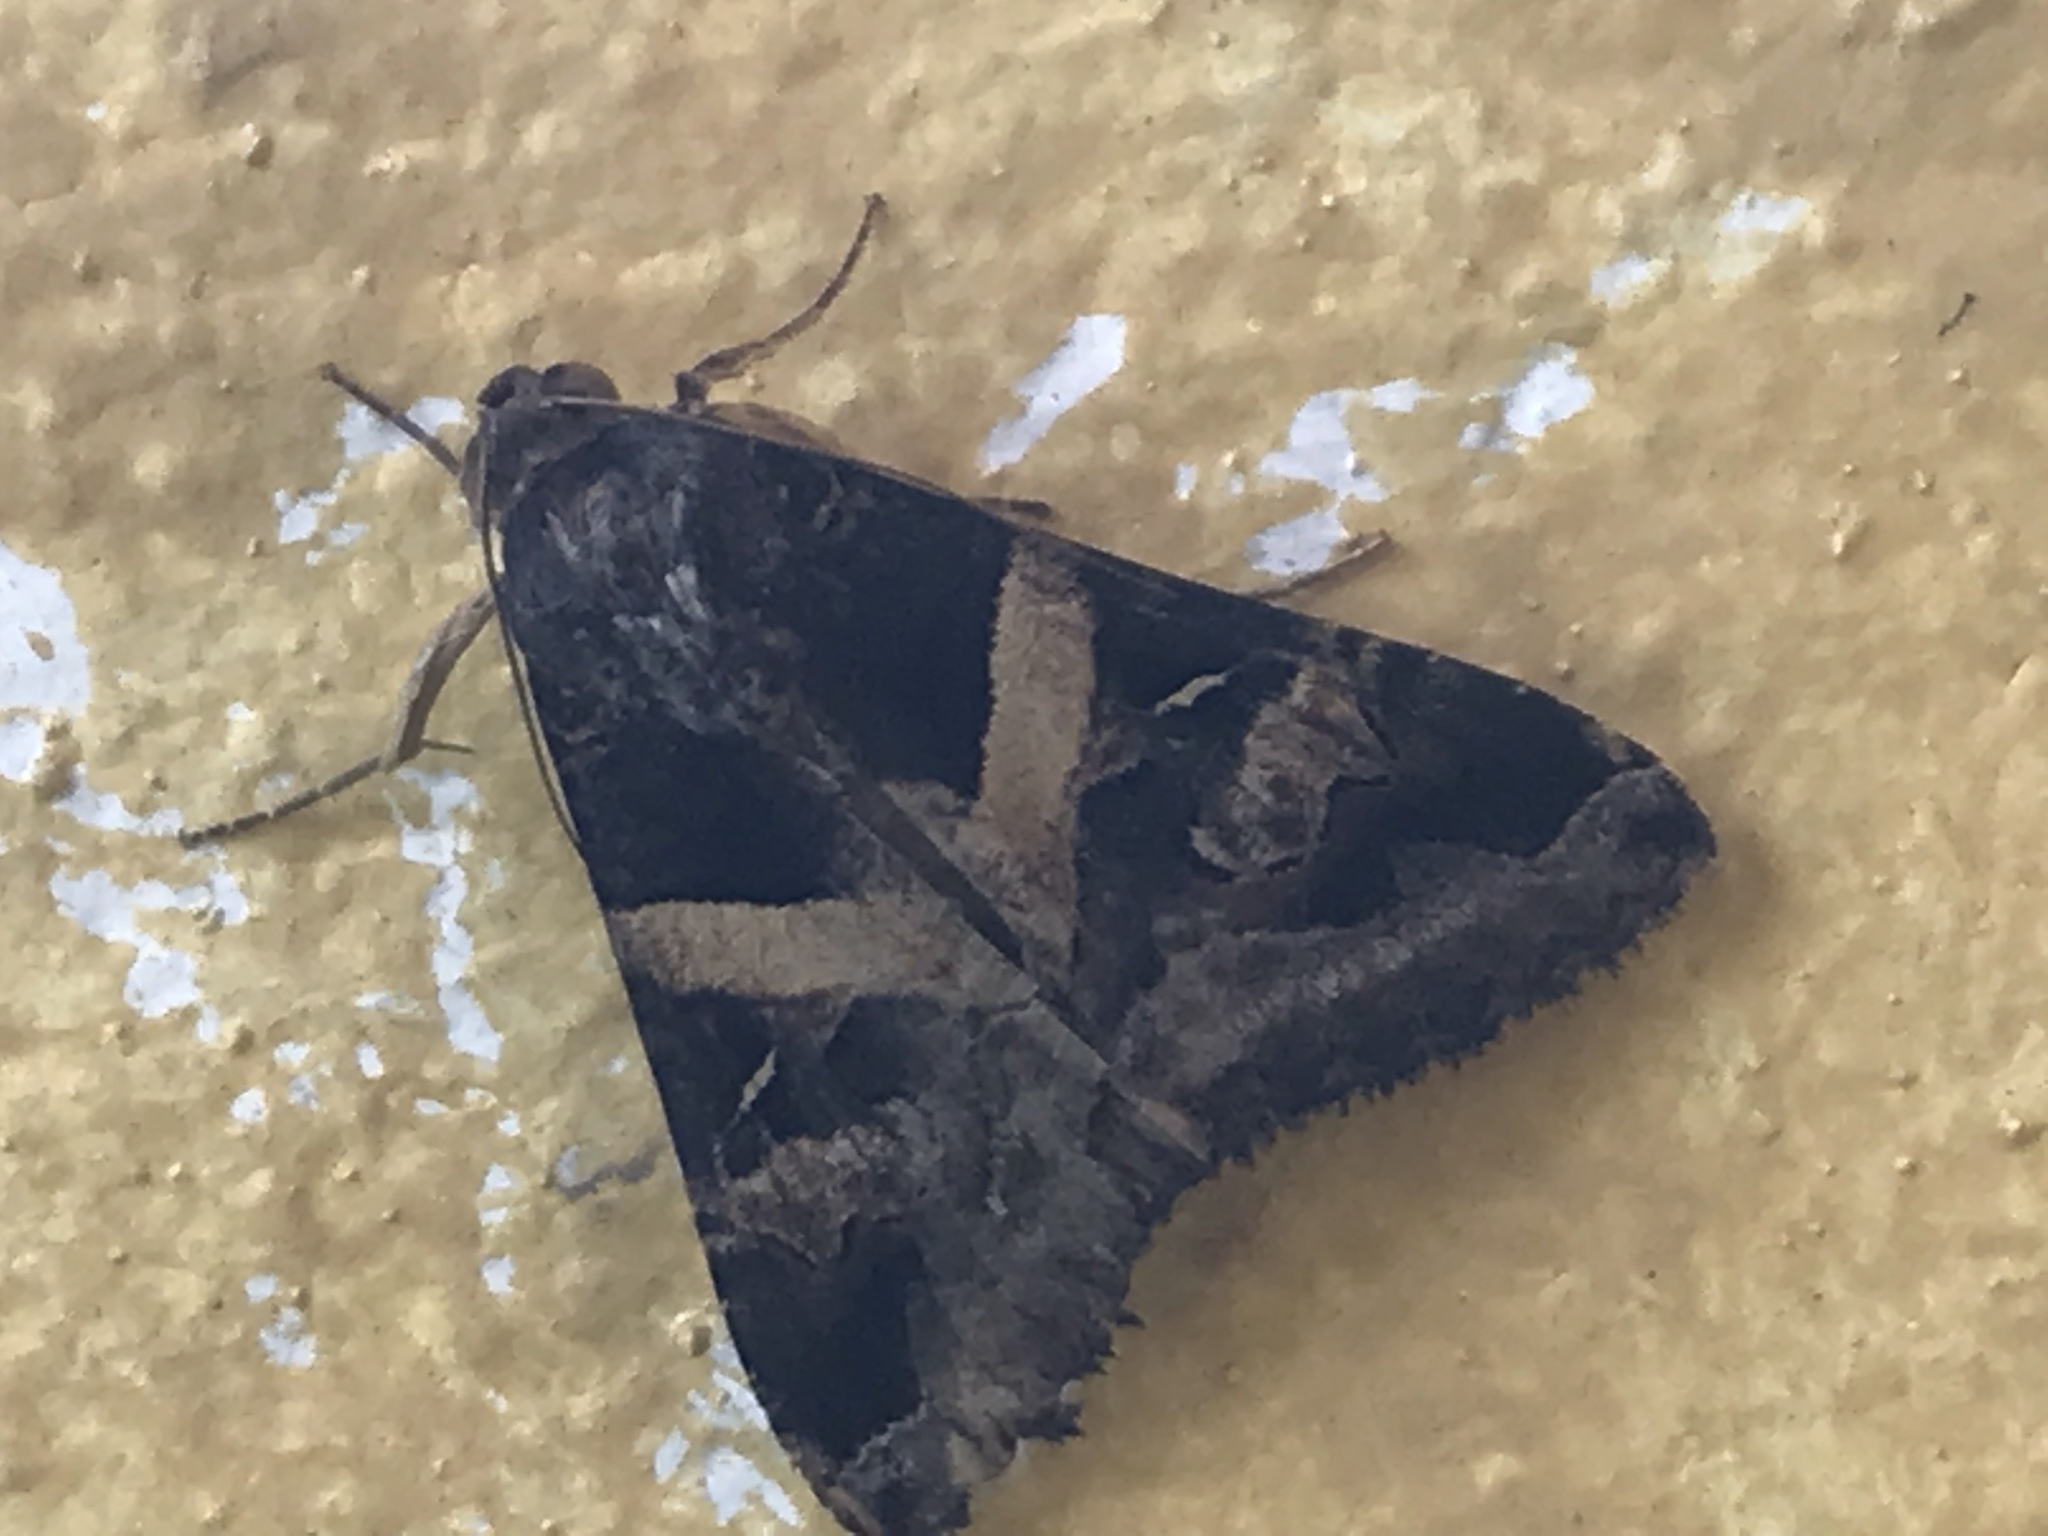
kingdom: Animalia
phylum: Arthropoda
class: Insecta
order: Lepidoptera
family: Erebidae
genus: Melipotis
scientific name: Melipotis indomita
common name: Moth
